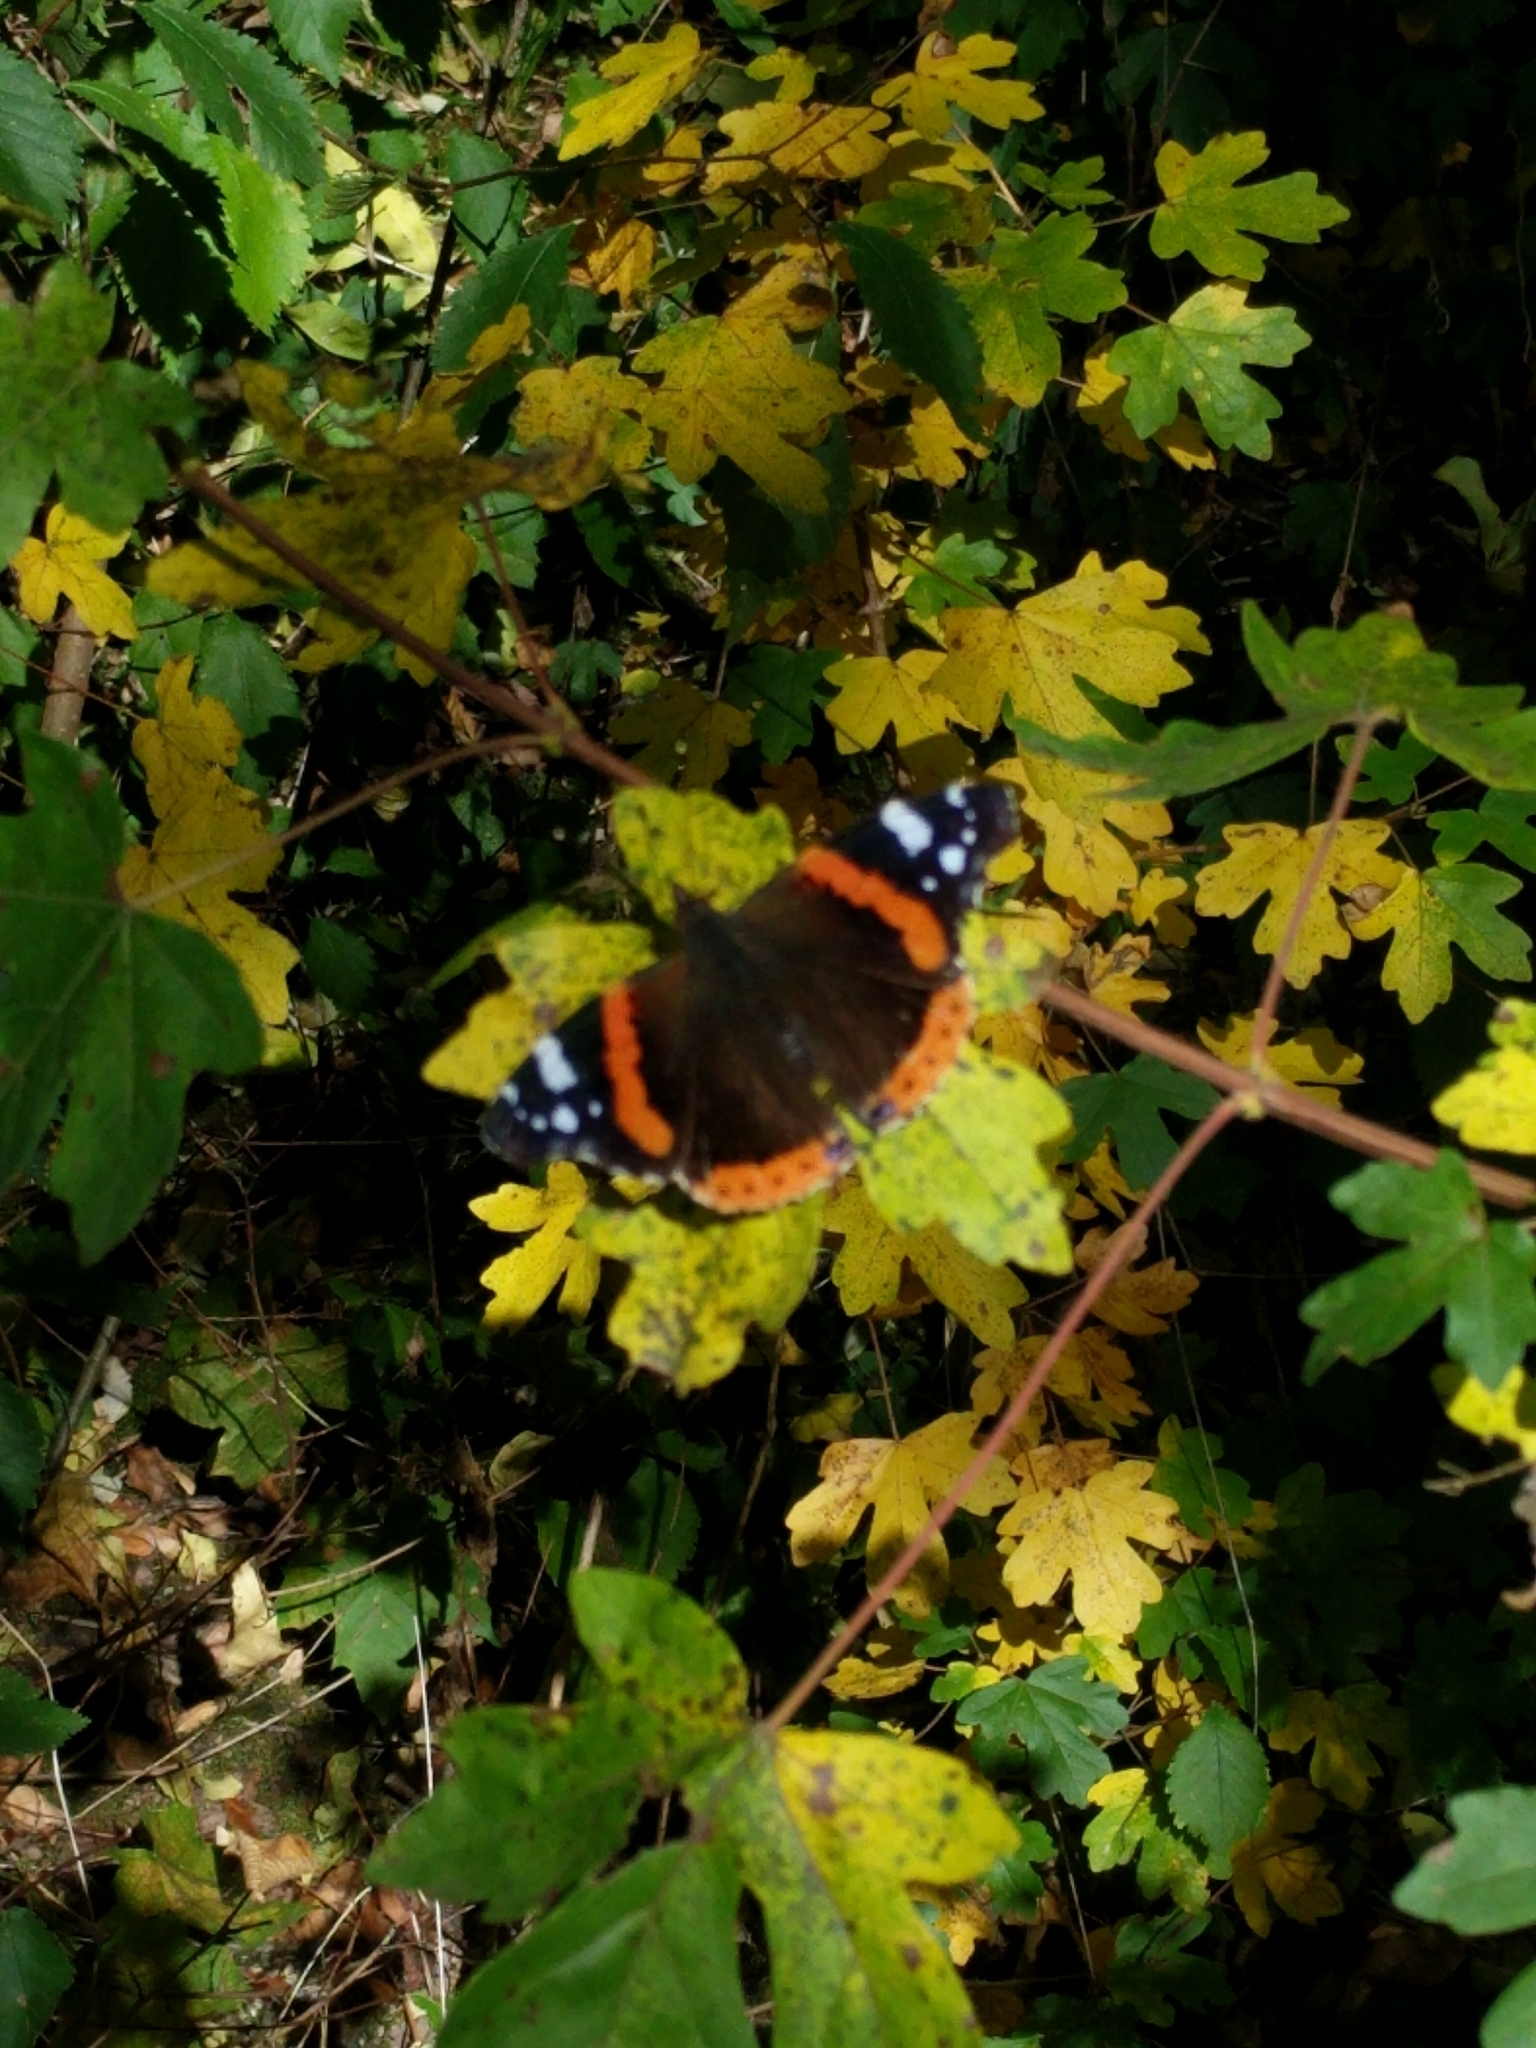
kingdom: Animalia
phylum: Arthropoda
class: Insecta
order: Lepidoptera
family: Nymphalidae
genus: Vanessa
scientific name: Vanessa atalanta
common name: Red admiral
